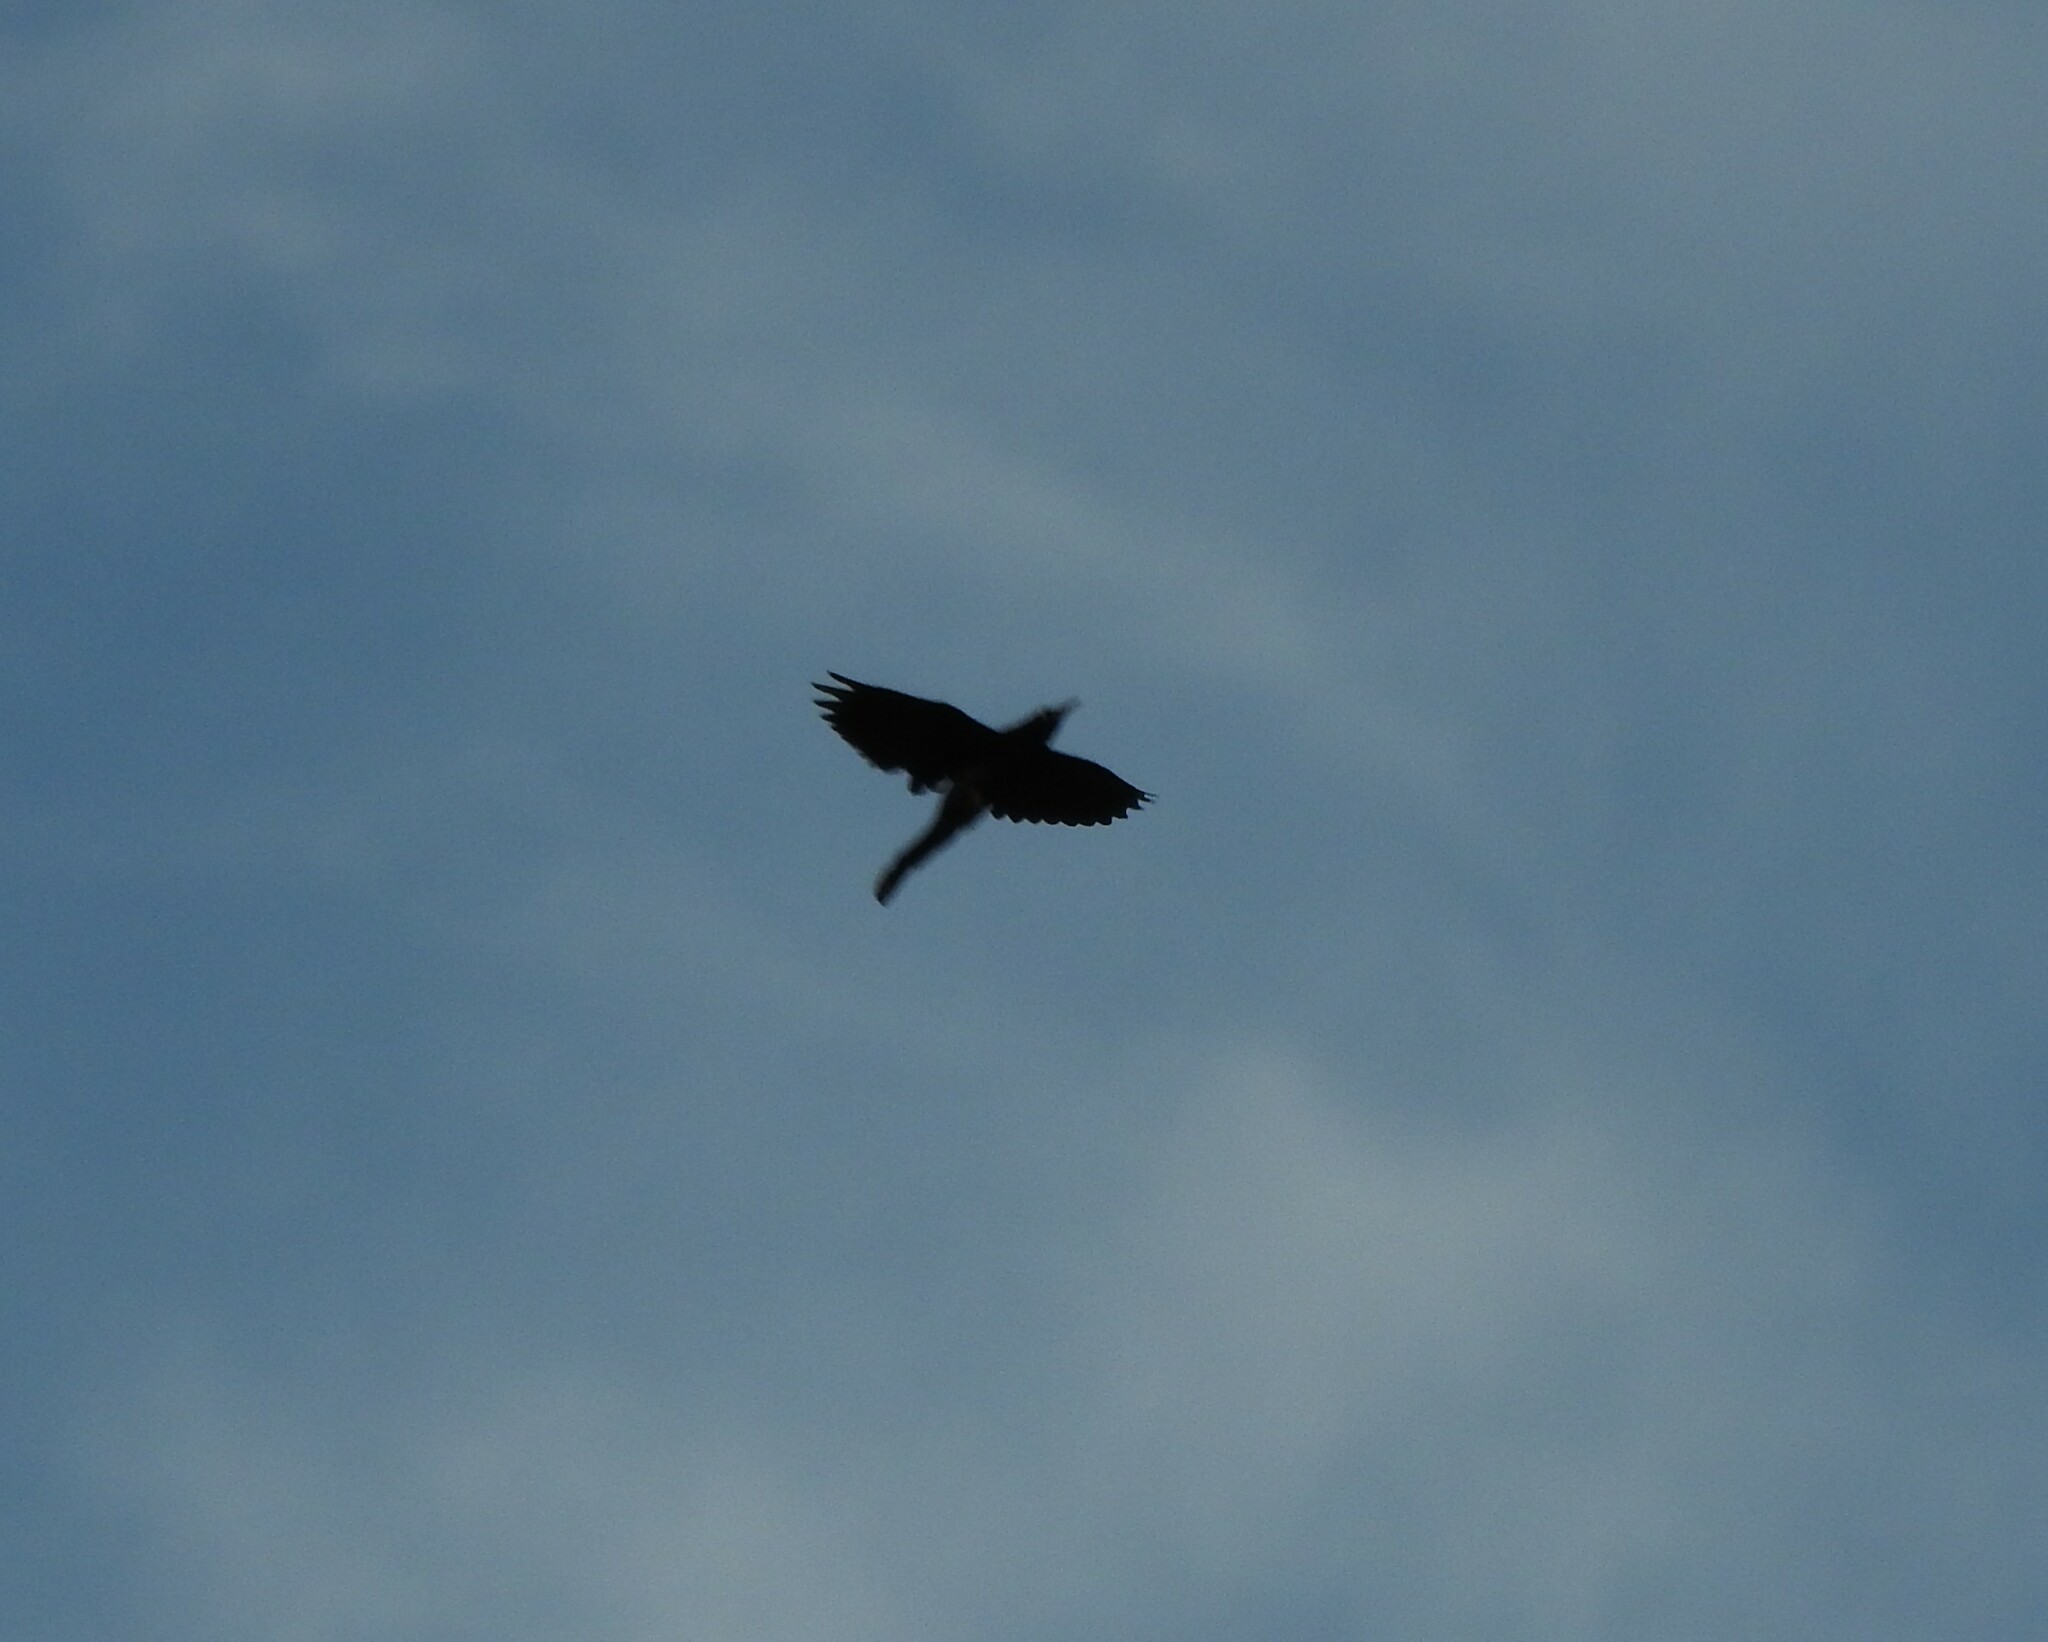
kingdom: Animalia
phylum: Chordata
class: Aves
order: Passeriformes
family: Icteridae
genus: Quiscalus
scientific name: Quiscalus mexicanus
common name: Great-tailed grackle
